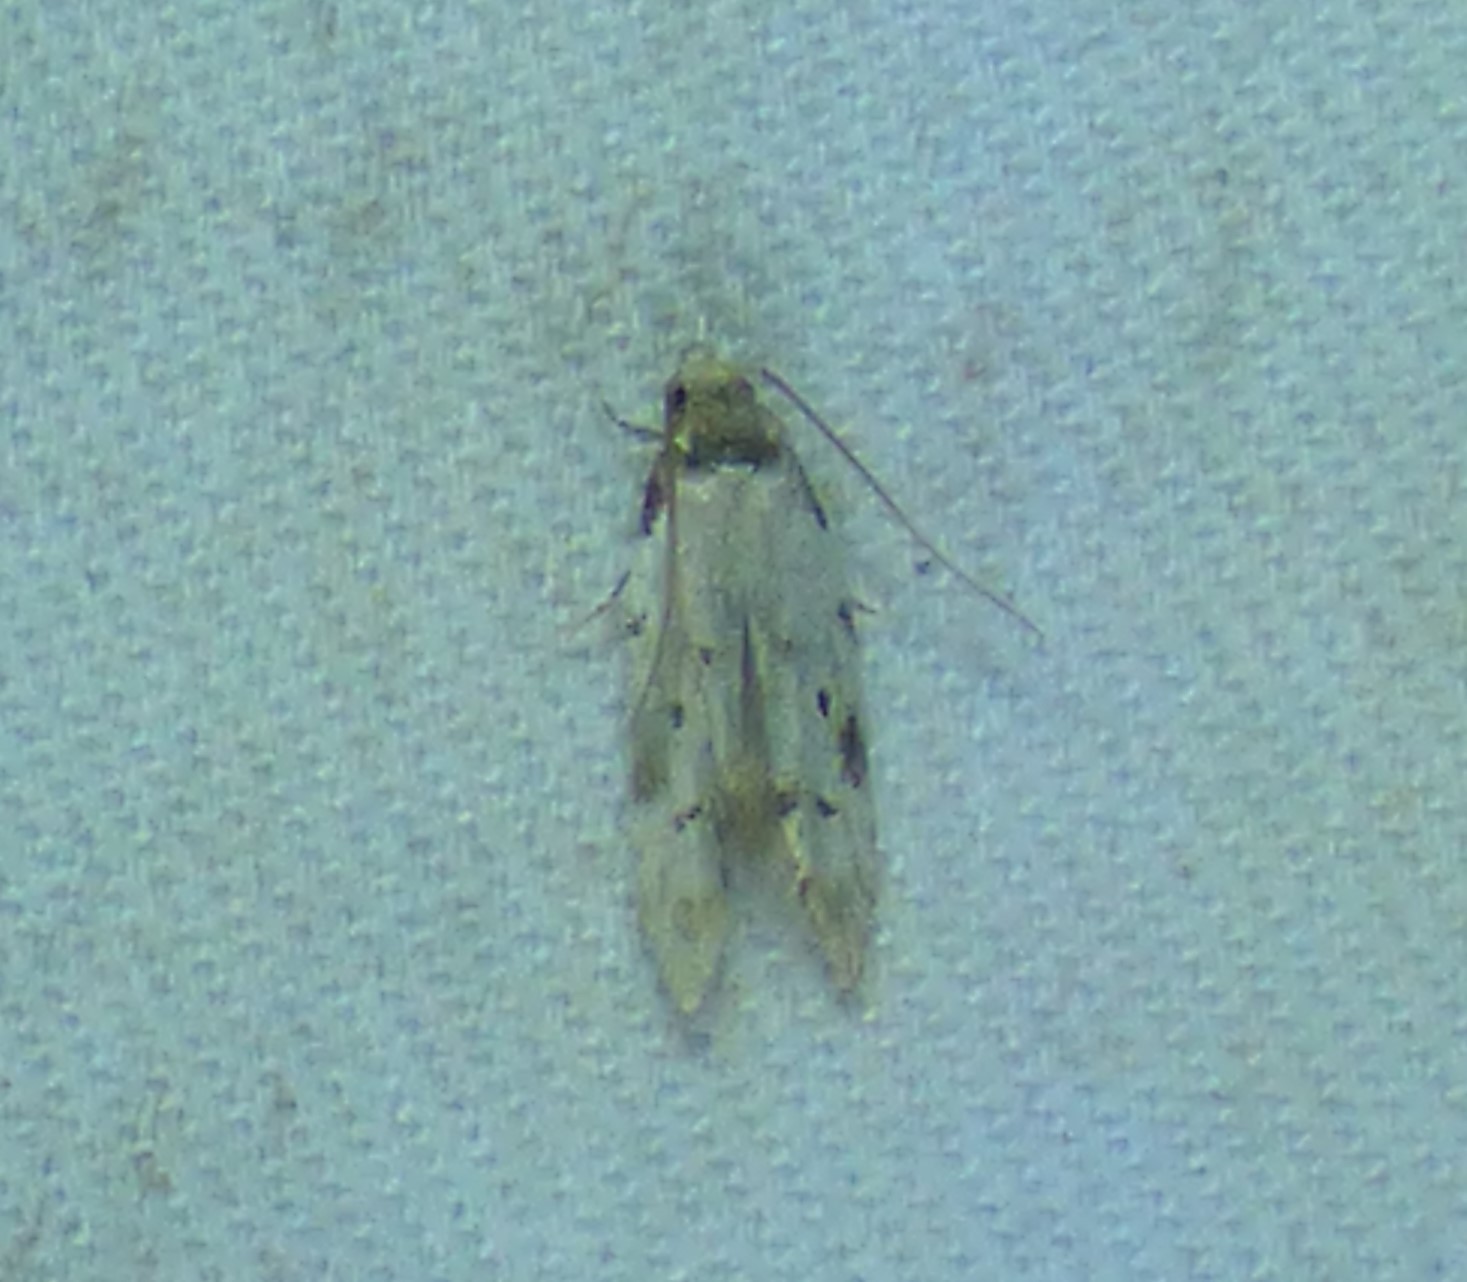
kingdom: Animalia
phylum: Arthropoda
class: Insecta
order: Lepidoptera
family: Autostichidae
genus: Taygete
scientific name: Taygete attributella
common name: Triangle-marked twirler moth
